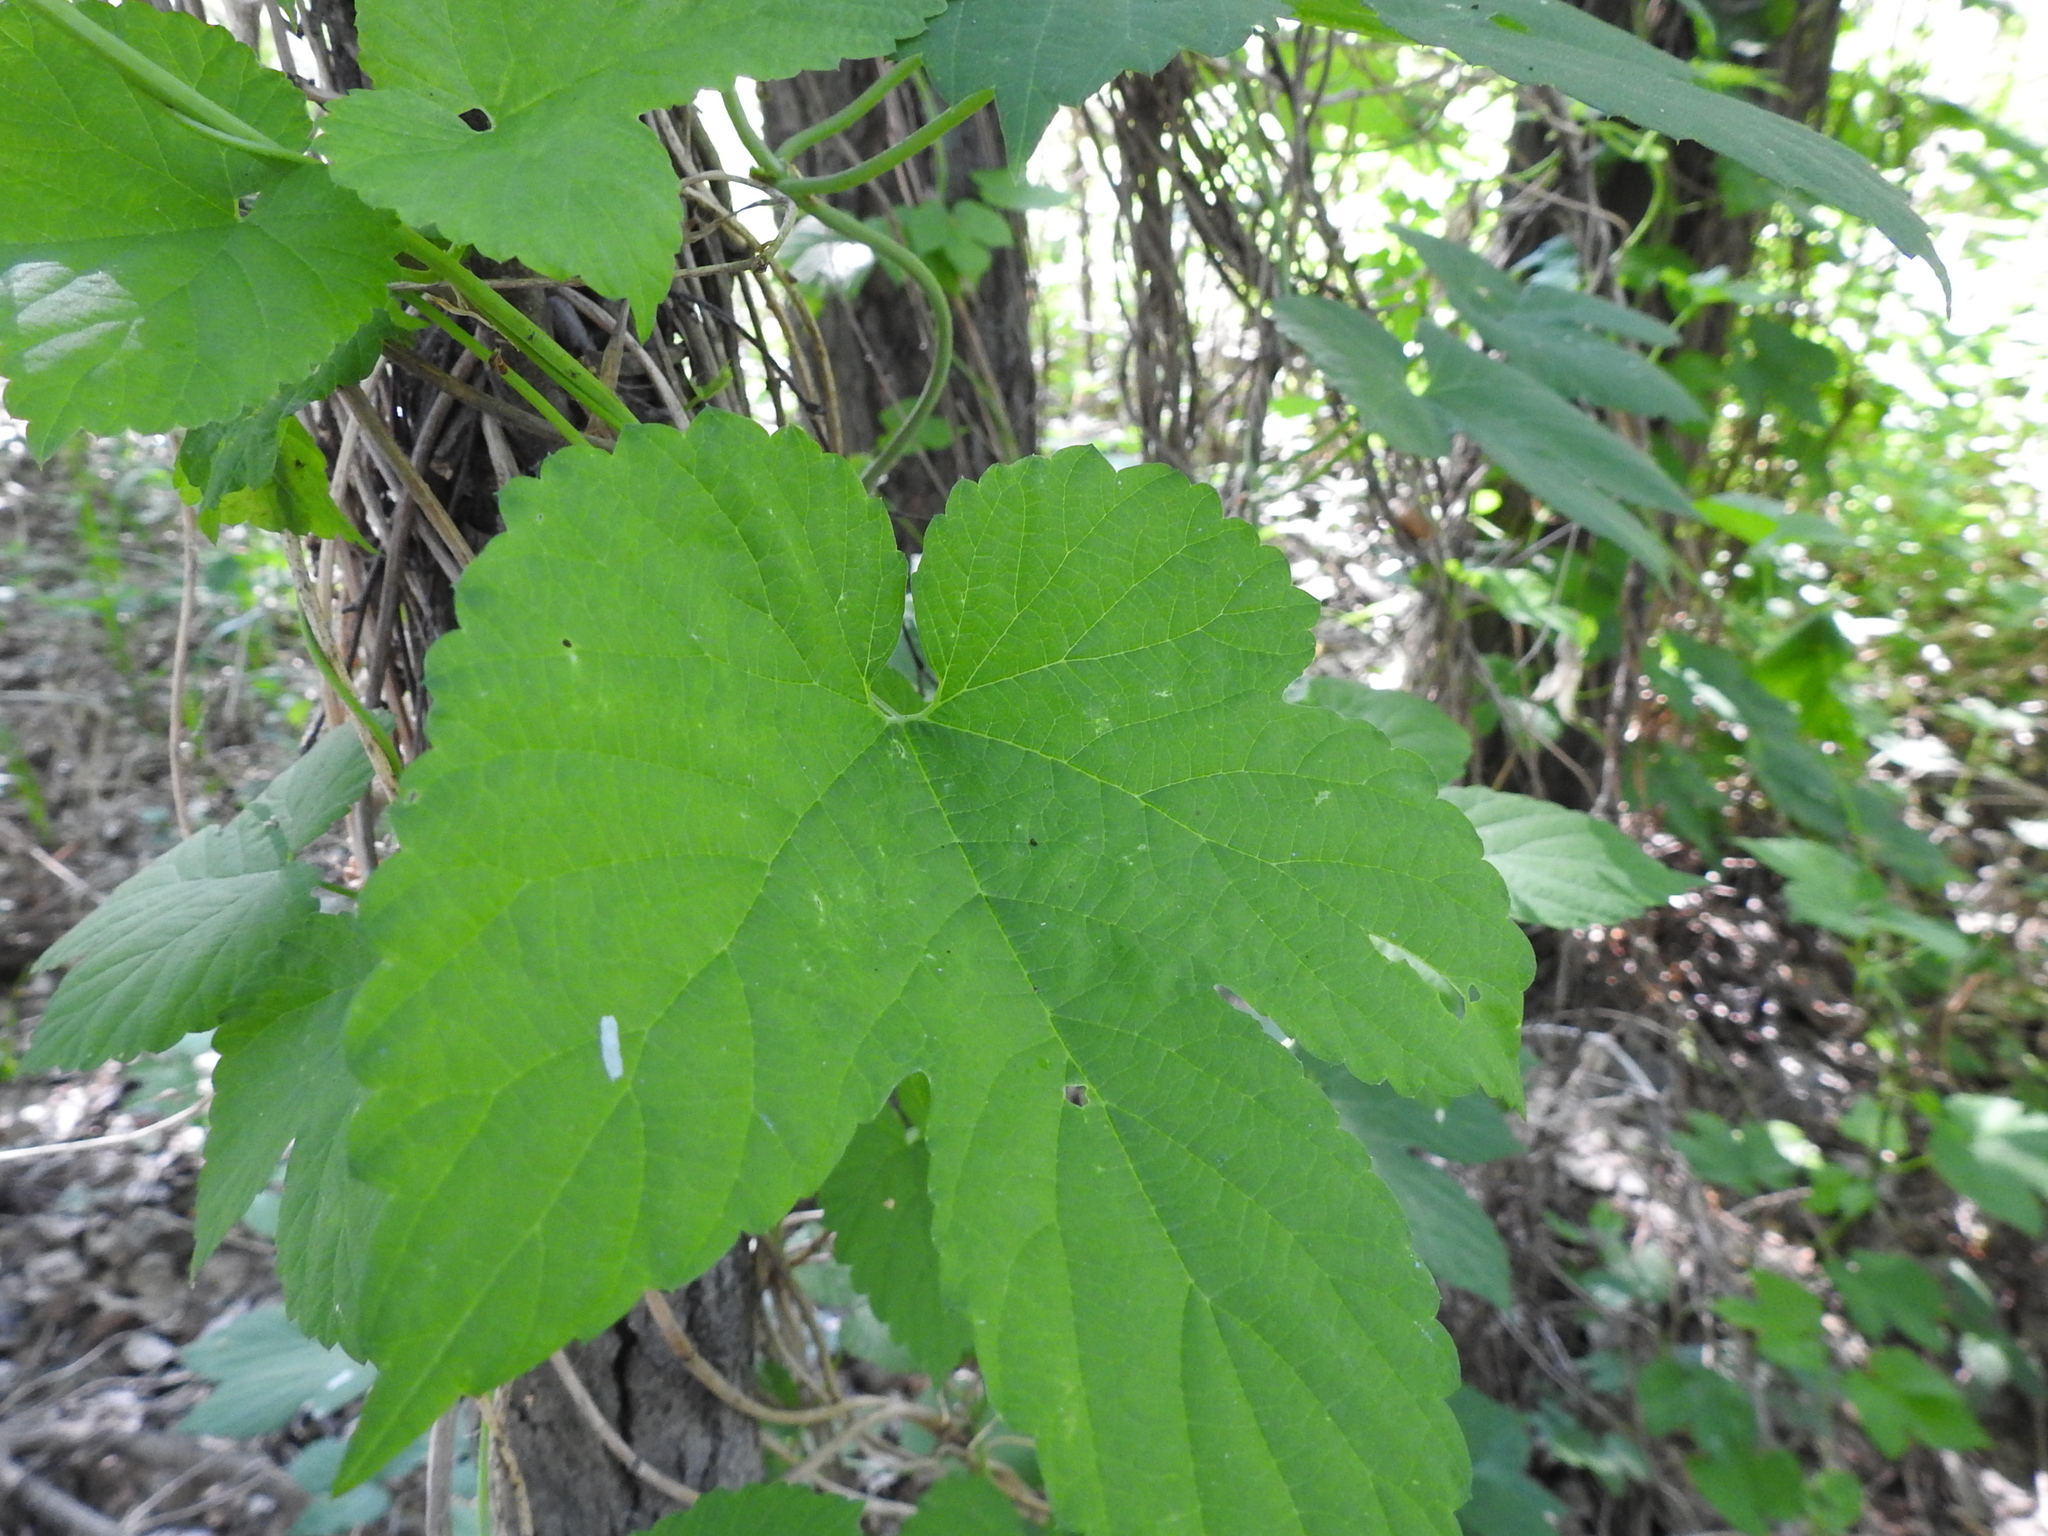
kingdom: Plantae
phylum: Tracheophyta
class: Magnoliopsida
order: Rosales
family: Cannabaceae
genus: Humulus
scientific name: Humulus lupulus
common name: Hop
